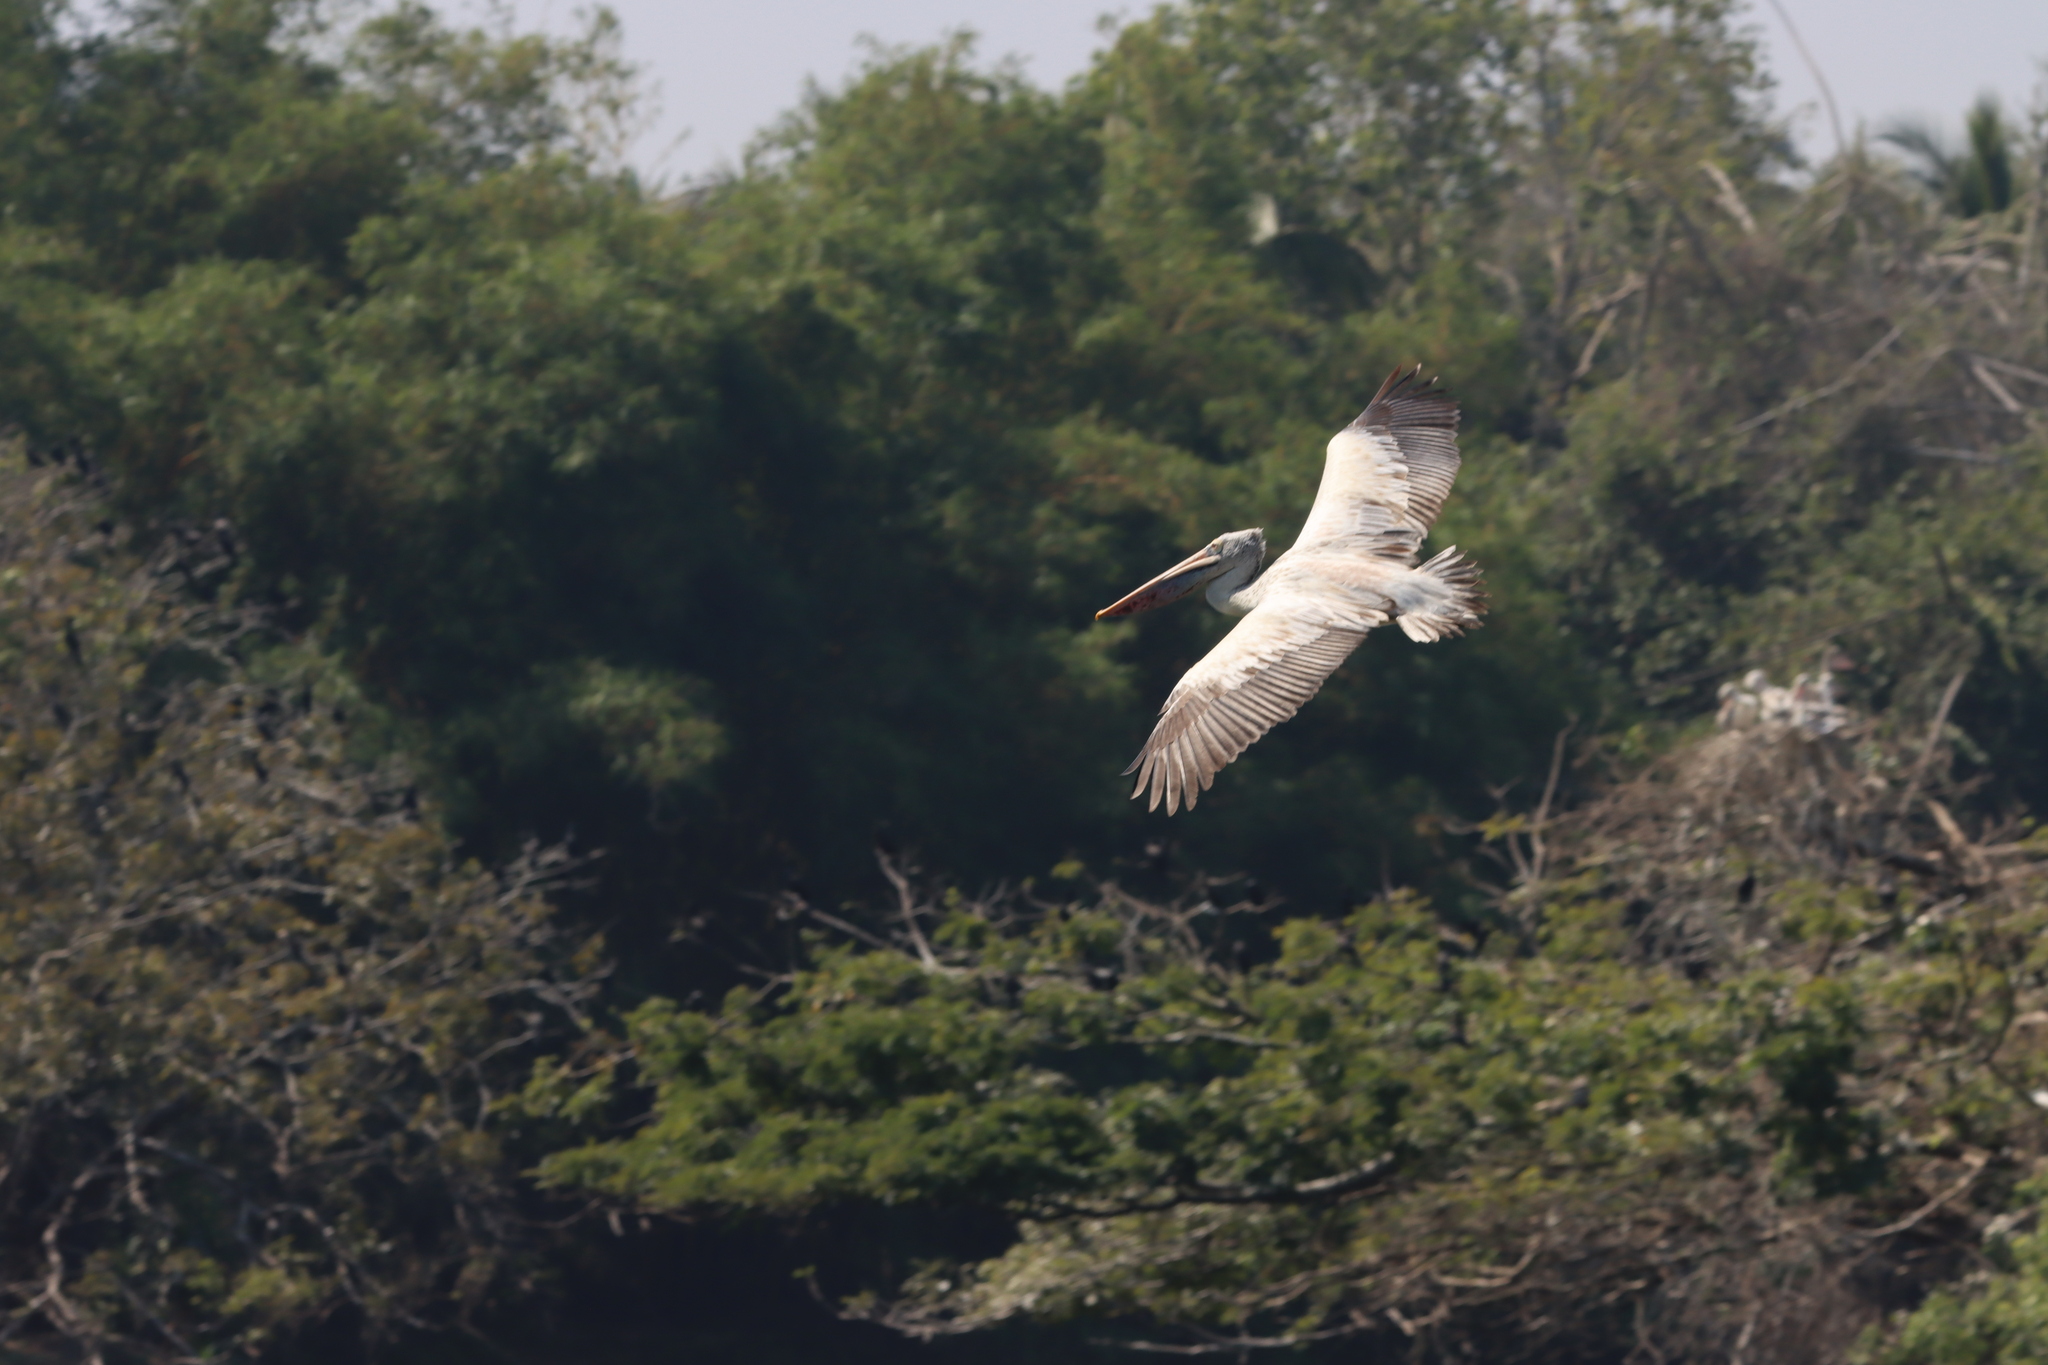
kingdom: Animalia
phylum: Chordata
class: Aves
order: Pelecaniformes
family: Pelecanidae
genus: Pelecanus
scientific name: Pelecanus philippensis
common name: Spot-billed pelican
